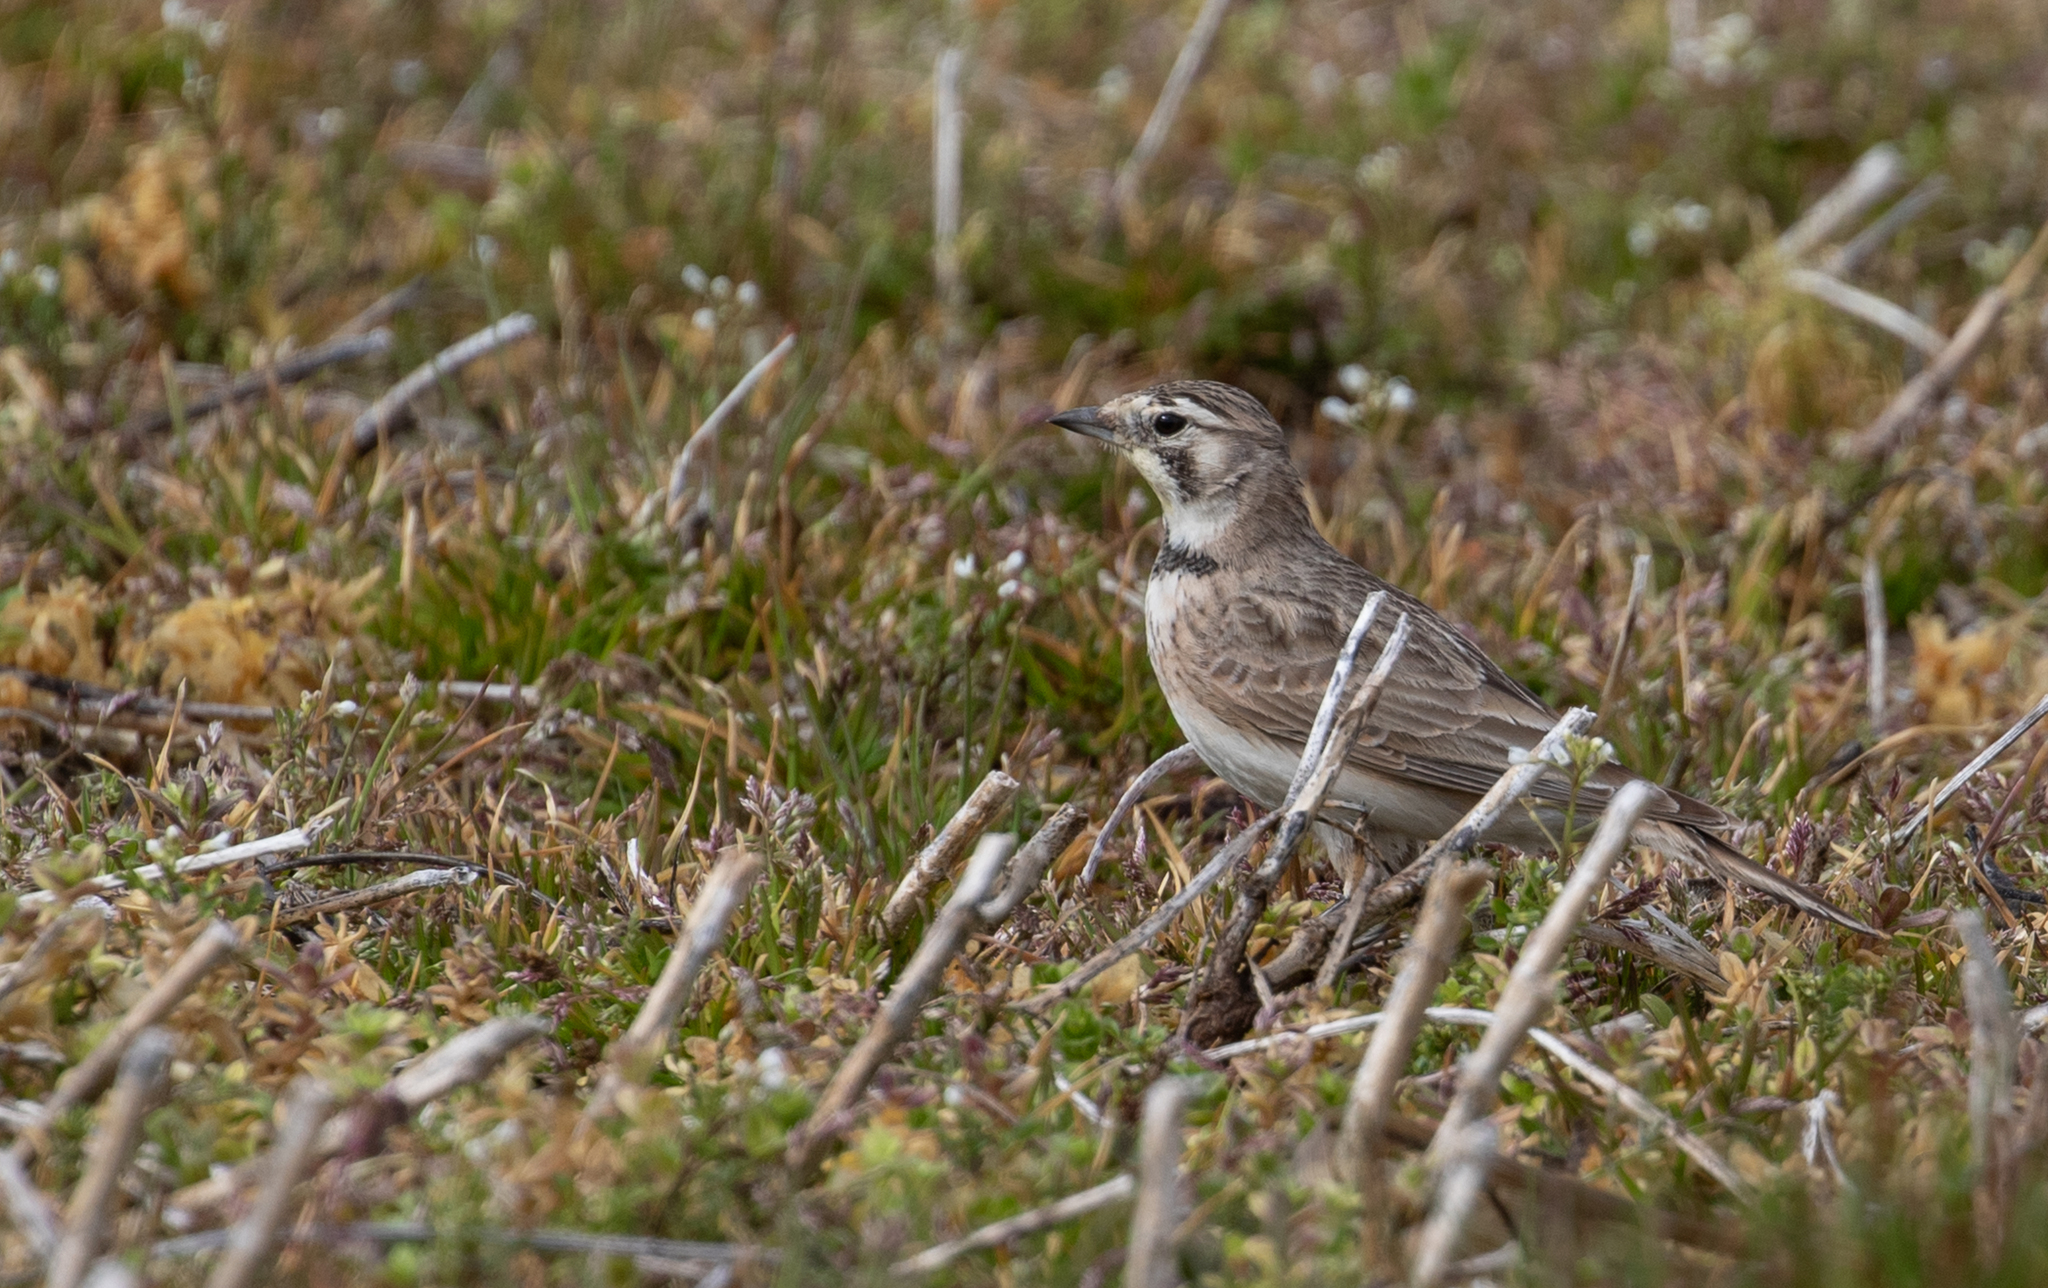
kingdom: Animalia
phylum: Chordata
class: Aves
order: Passeriformes
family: Alaudidae
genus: Eremophila
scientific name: Eremophila alpestris
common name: Horned lark
